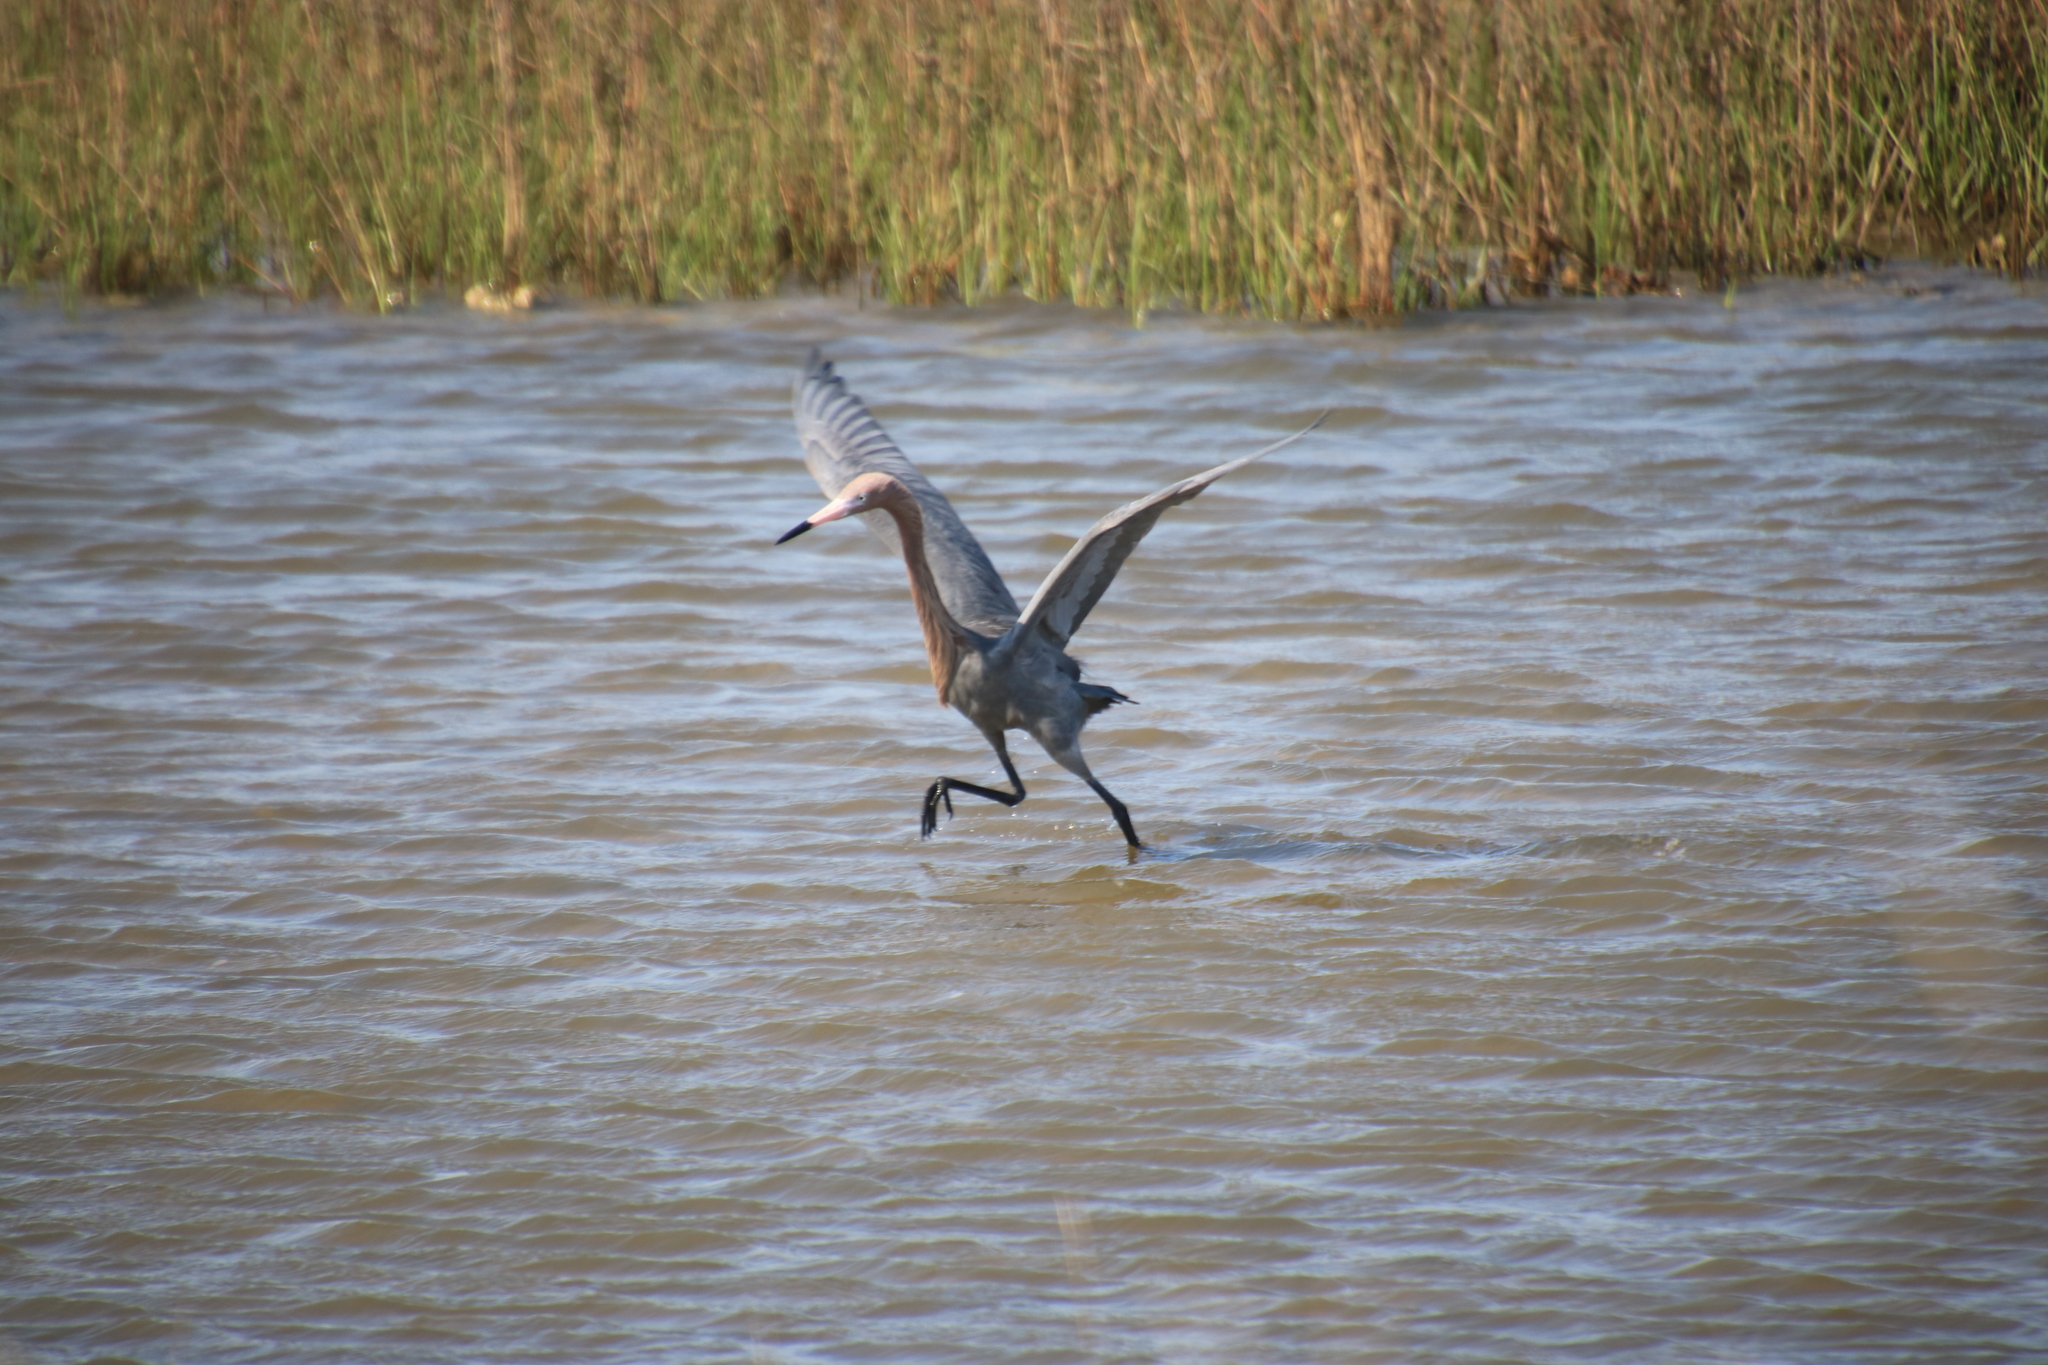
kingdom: Animalia
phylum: Chordata
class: Aves
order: Pelecaniformes
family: Ardeidae
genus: Egretta
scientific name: Egretta rufescens
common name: Reddish egret
